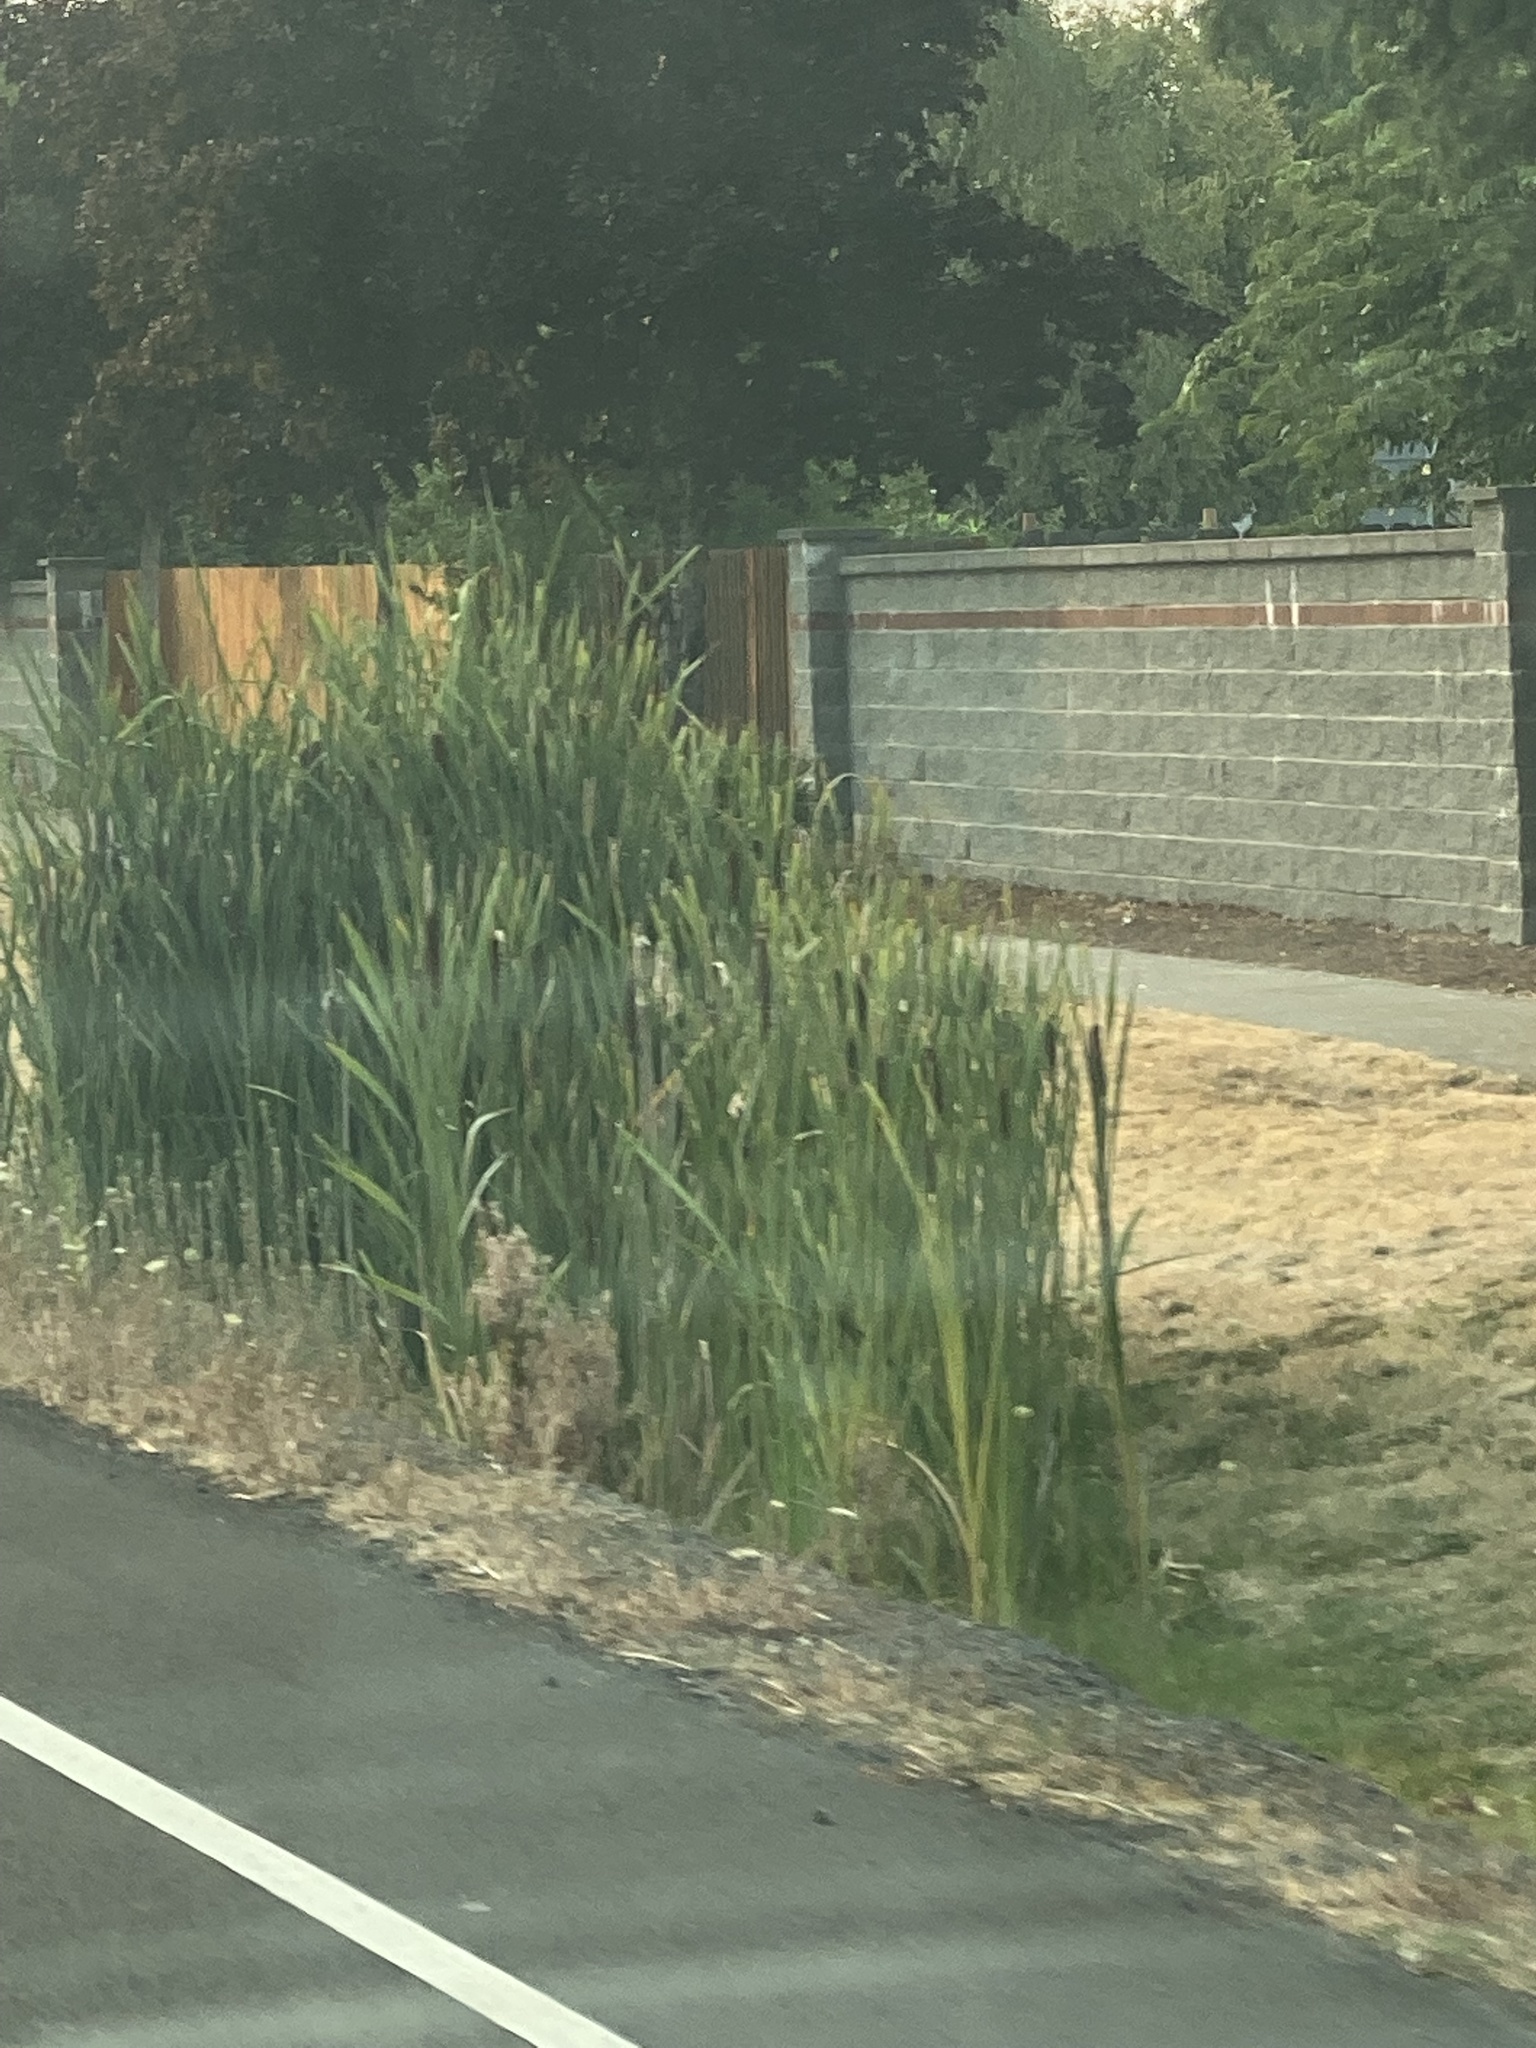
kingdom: Plantae
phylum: Tracheophyta
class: Liliopsida
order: Poales
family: Typhaceae
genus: Typha
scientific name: Typha latifolia
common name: Broadleaf cattail
